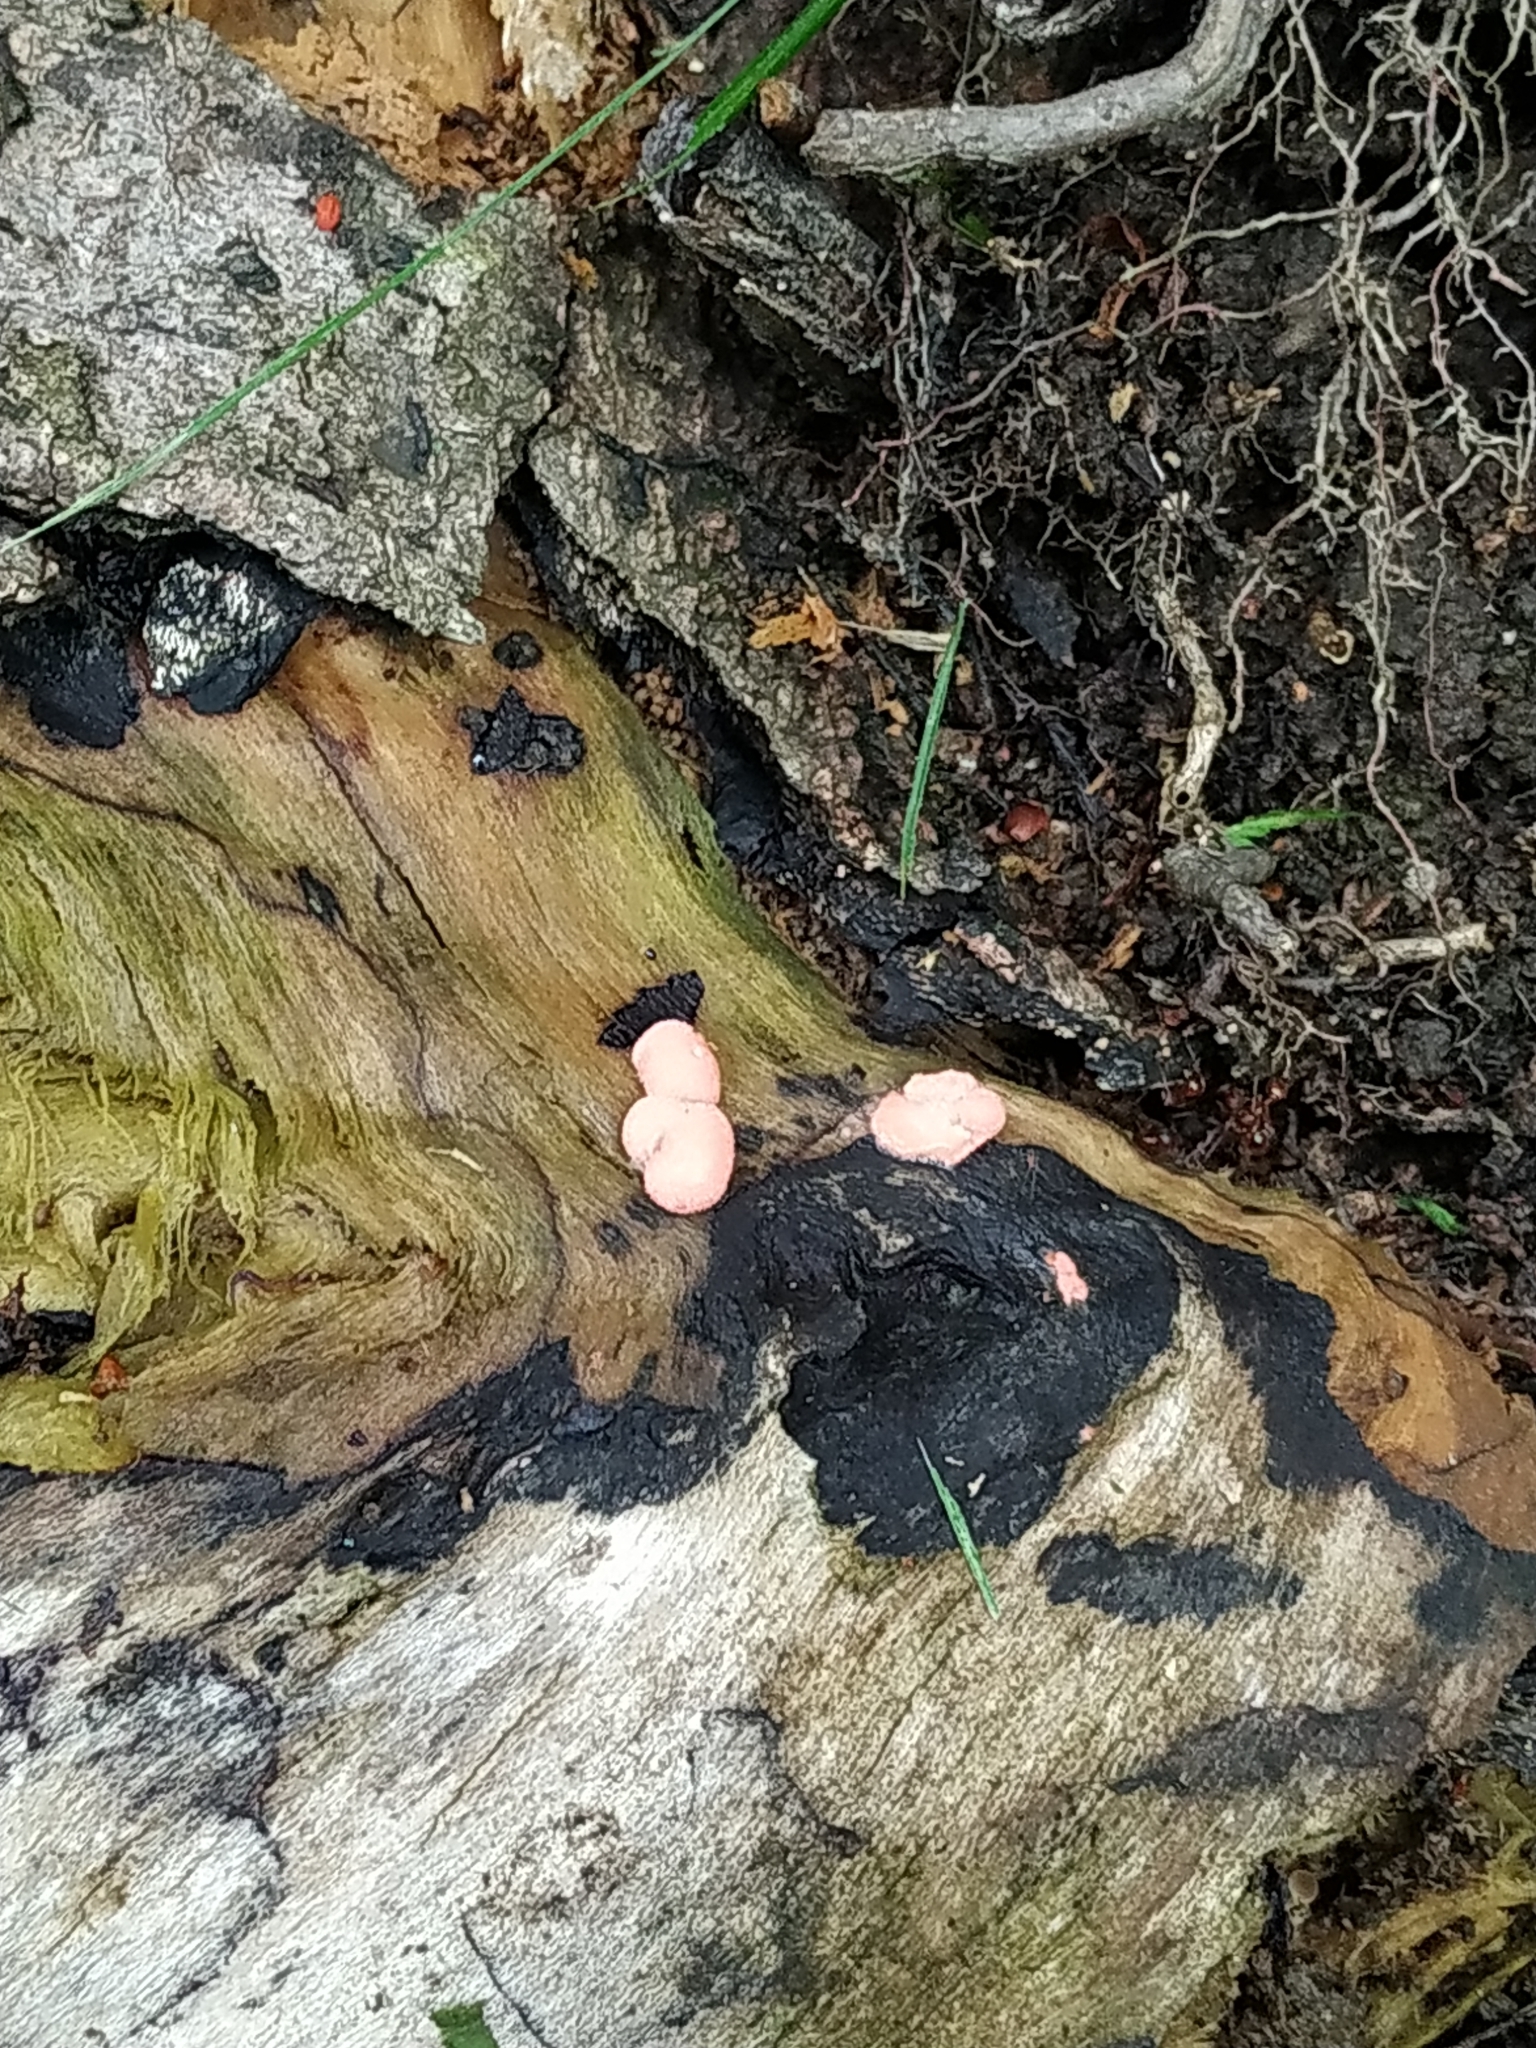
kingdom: Protozoa
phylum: Mycetozoa
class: Myxomycetes
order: Cribrariales
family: Tubiferaceae
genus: Lycogala
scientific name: Lycogala epidendrum
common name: Wolf's milk
